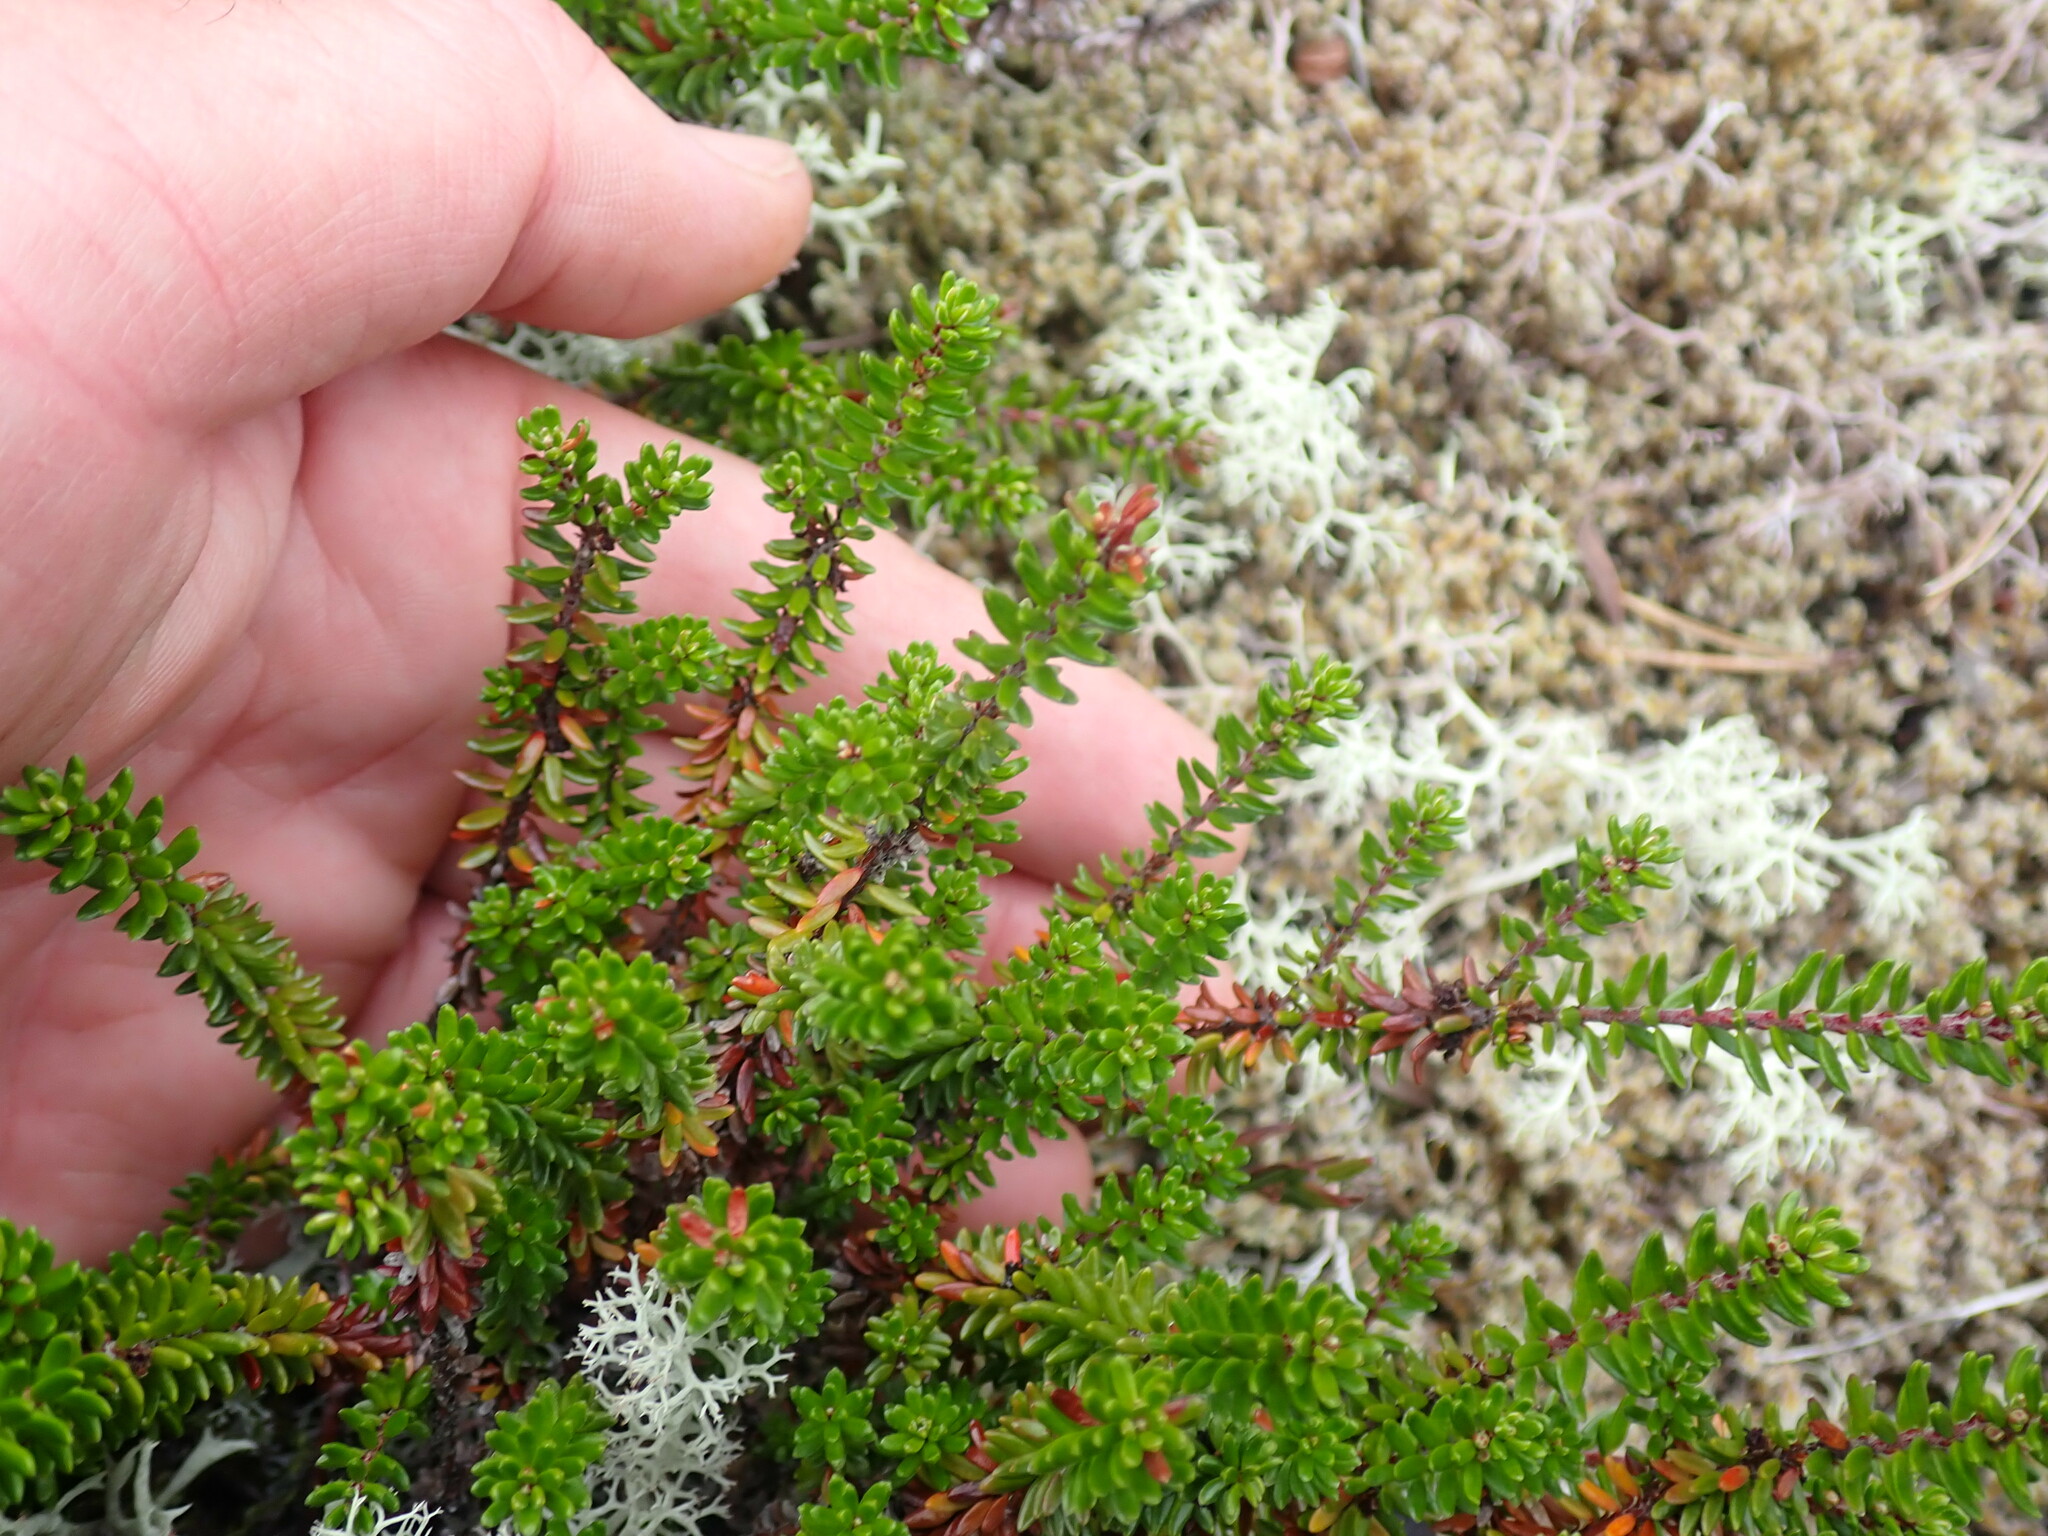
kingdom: Plantae
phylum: Tracheophyta
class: Magnoliopsida
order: Ericales
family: Ericaceae
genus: Empetrum
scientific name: Empetrum nigrum
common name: Black crowberry
